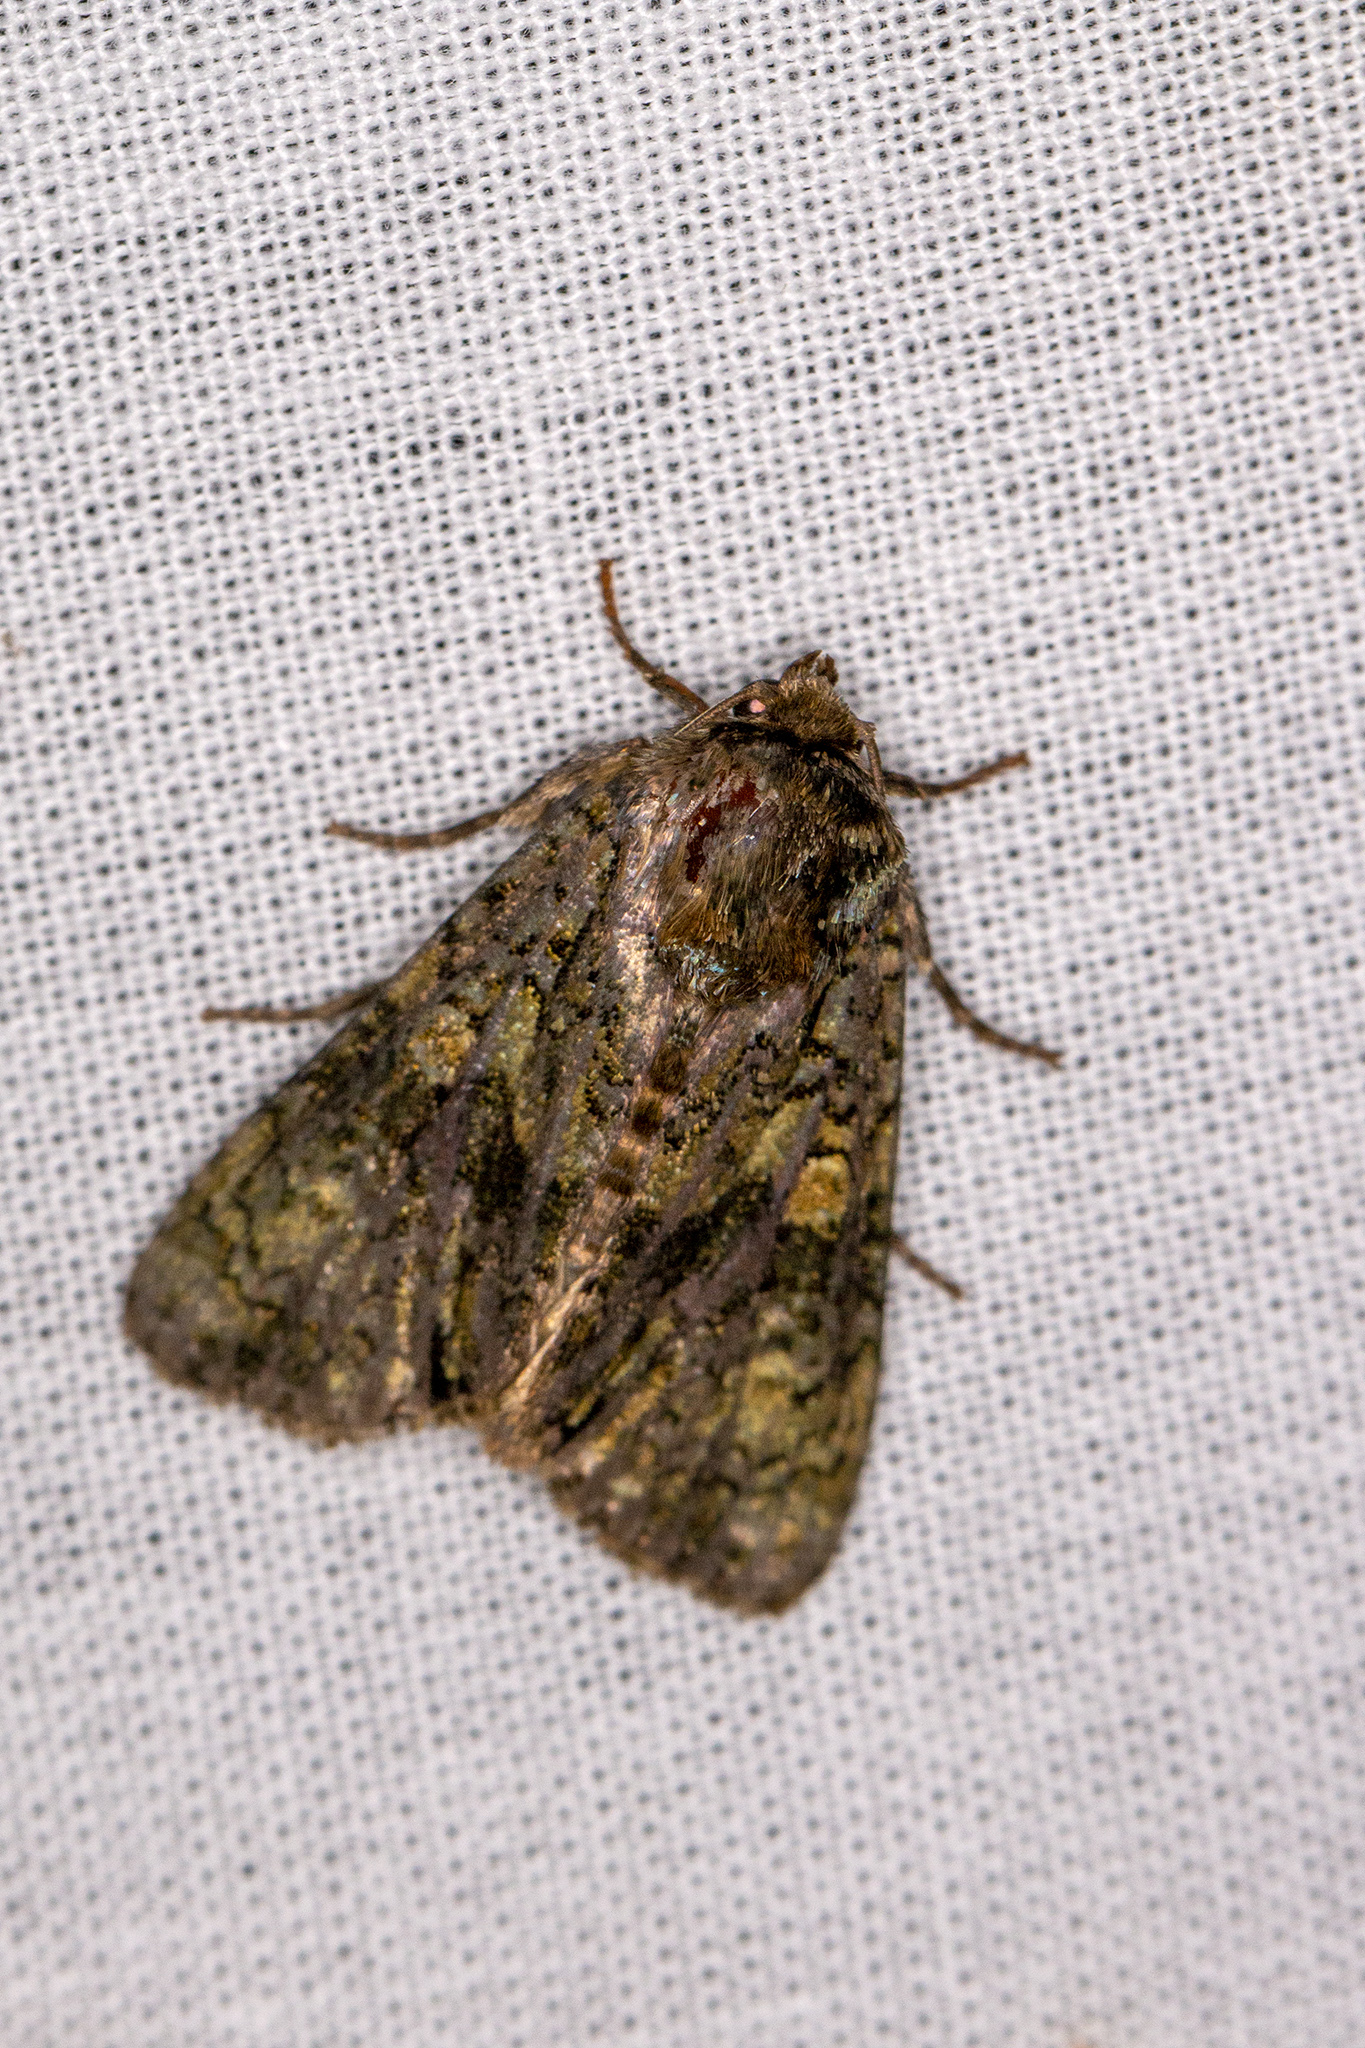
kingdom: Animalia
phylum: Arthropoda
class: Insecta
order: Lepidoptera
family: Noctuidae
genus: Craniophora
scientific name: Craniophora ligustri
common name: Coronet
